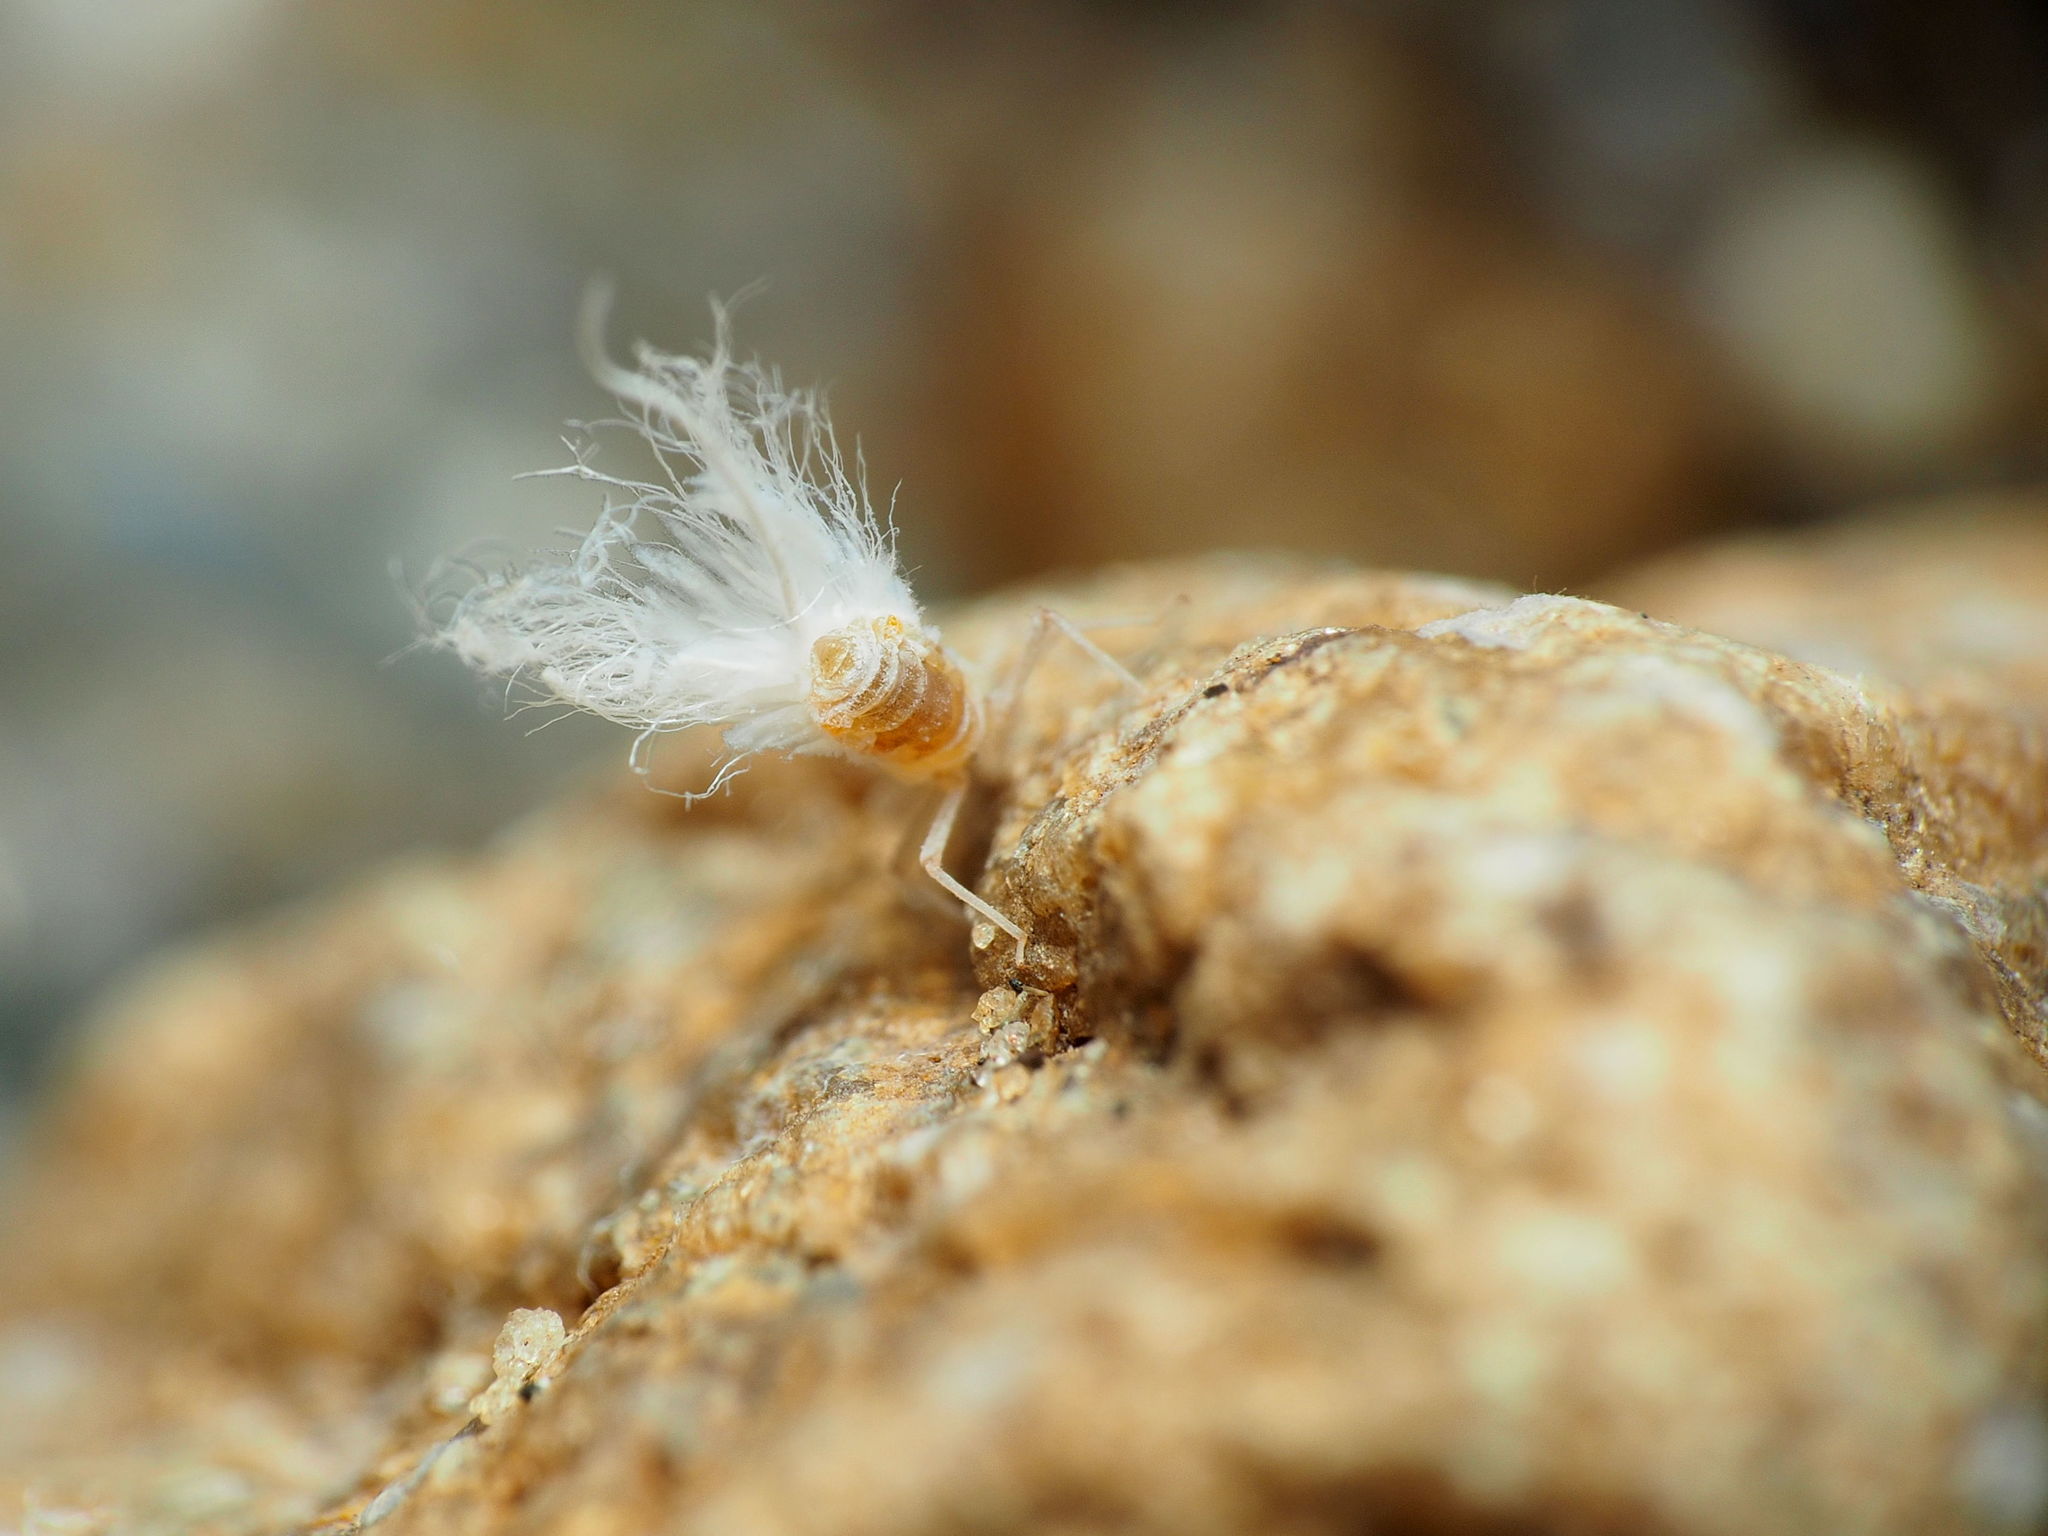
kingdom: Animalia
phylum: Arthropoda
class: Insecta
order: Hemiptera
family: Aphididae
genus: Grylloprociphilus
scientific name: Grylloprociphilus imbricator
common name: Beech blight aphid
